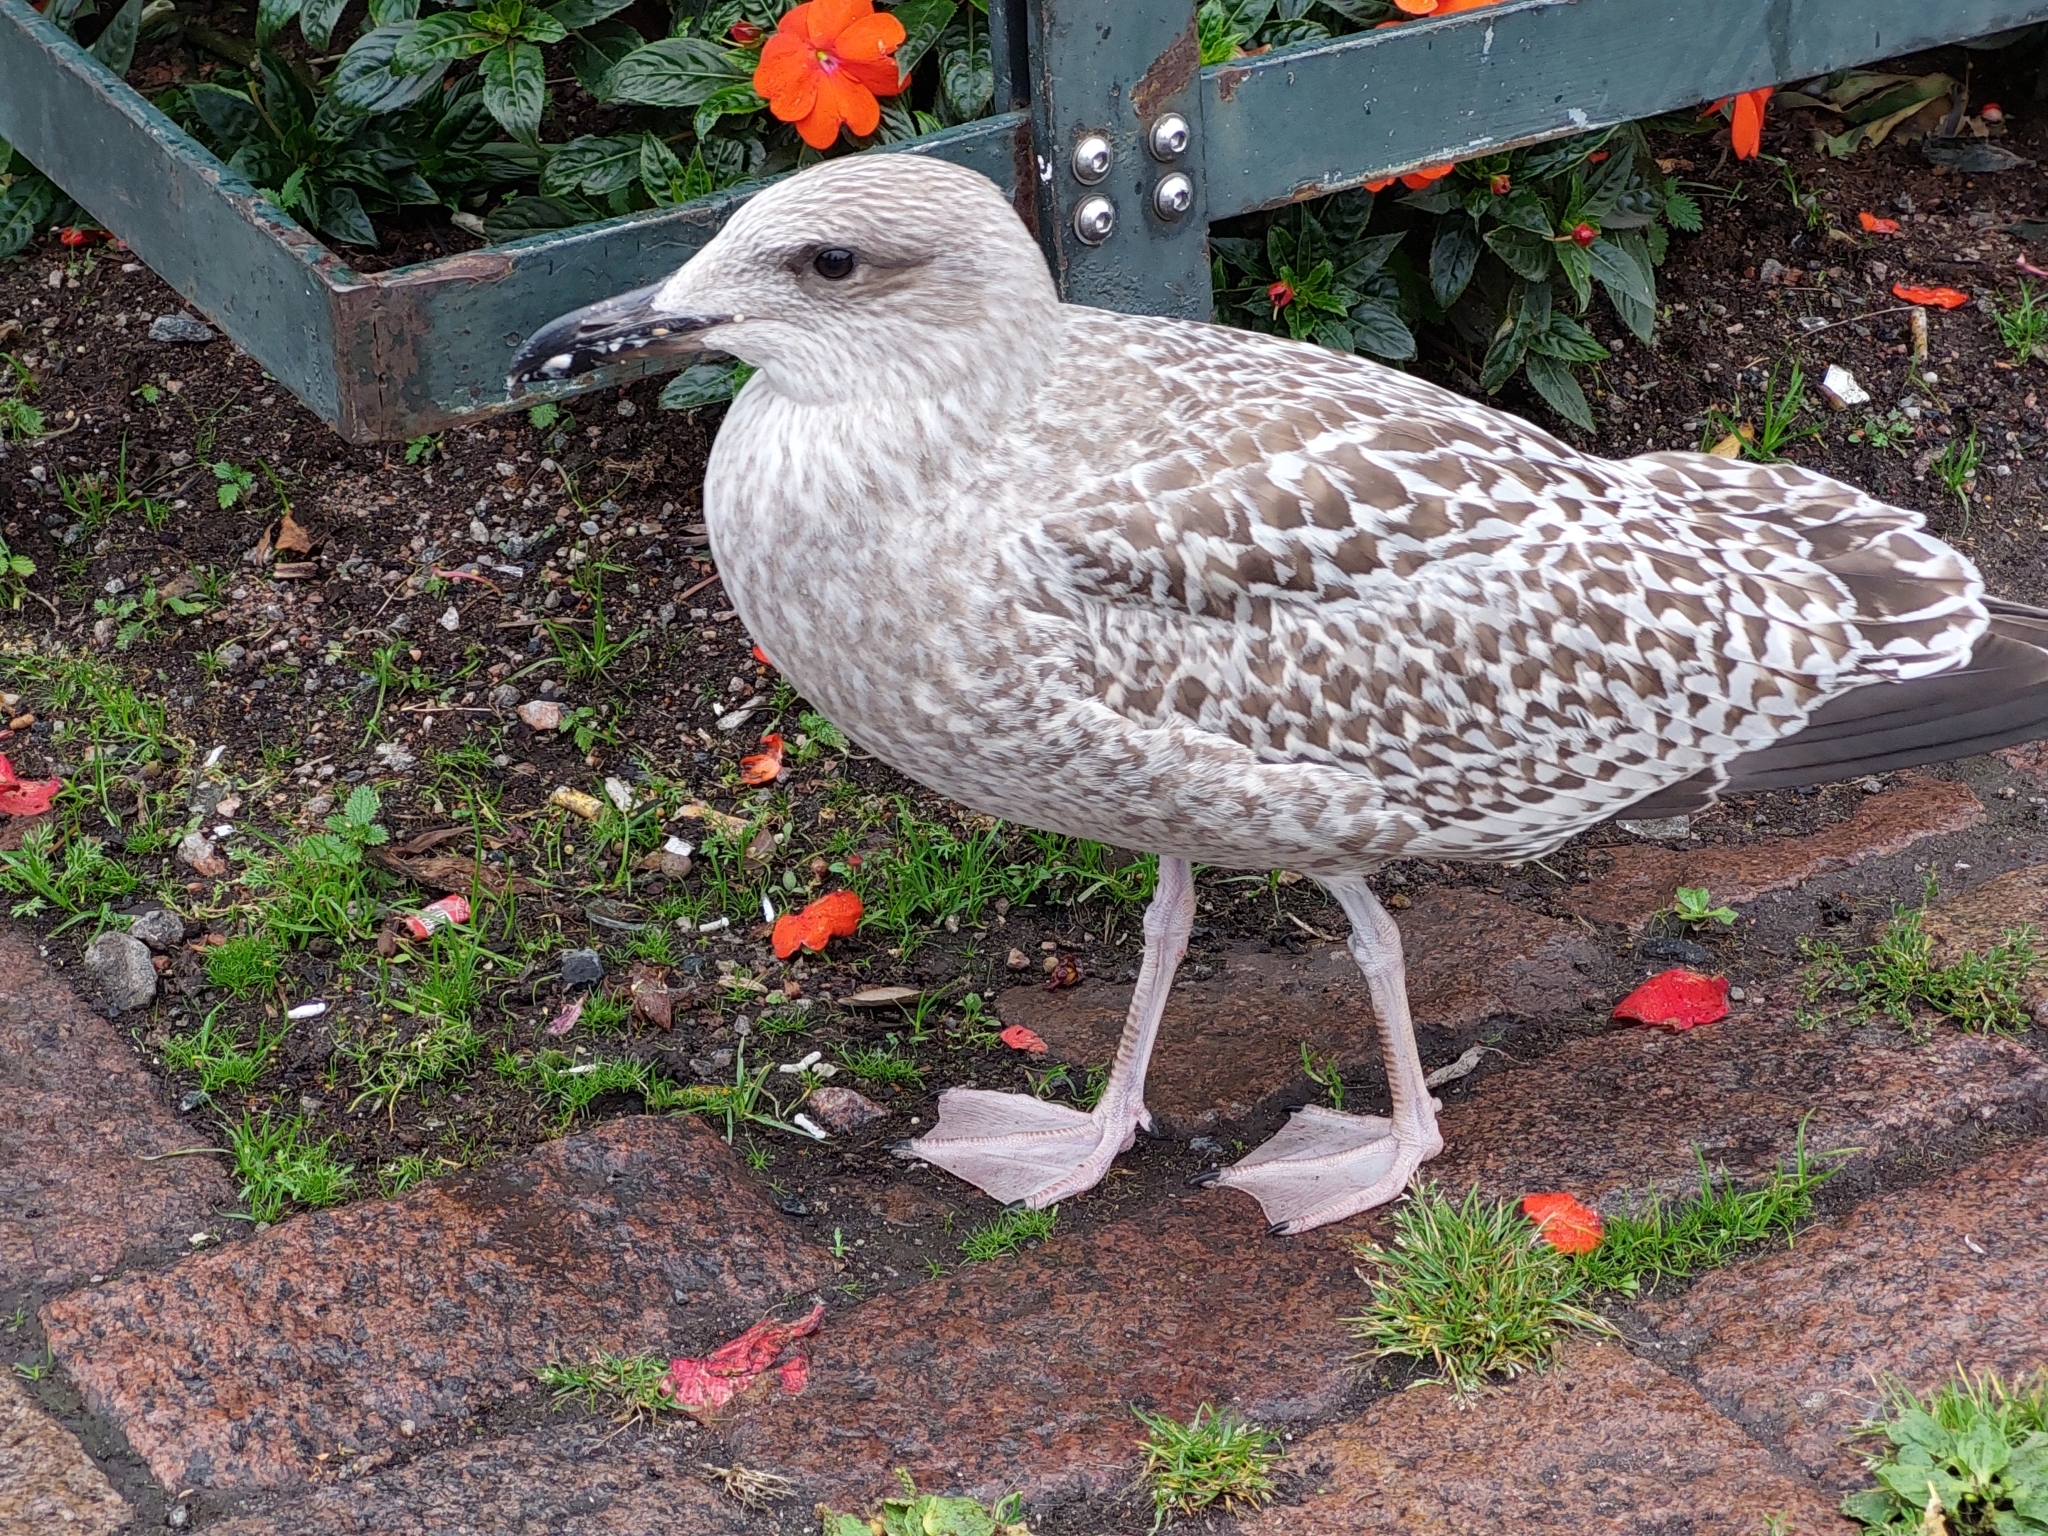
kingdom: Animalia
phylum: Chordata
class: Aves
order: Charadriiformes
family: Laridae
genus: Larus
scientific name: Larus argentatus
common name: Herring gull
